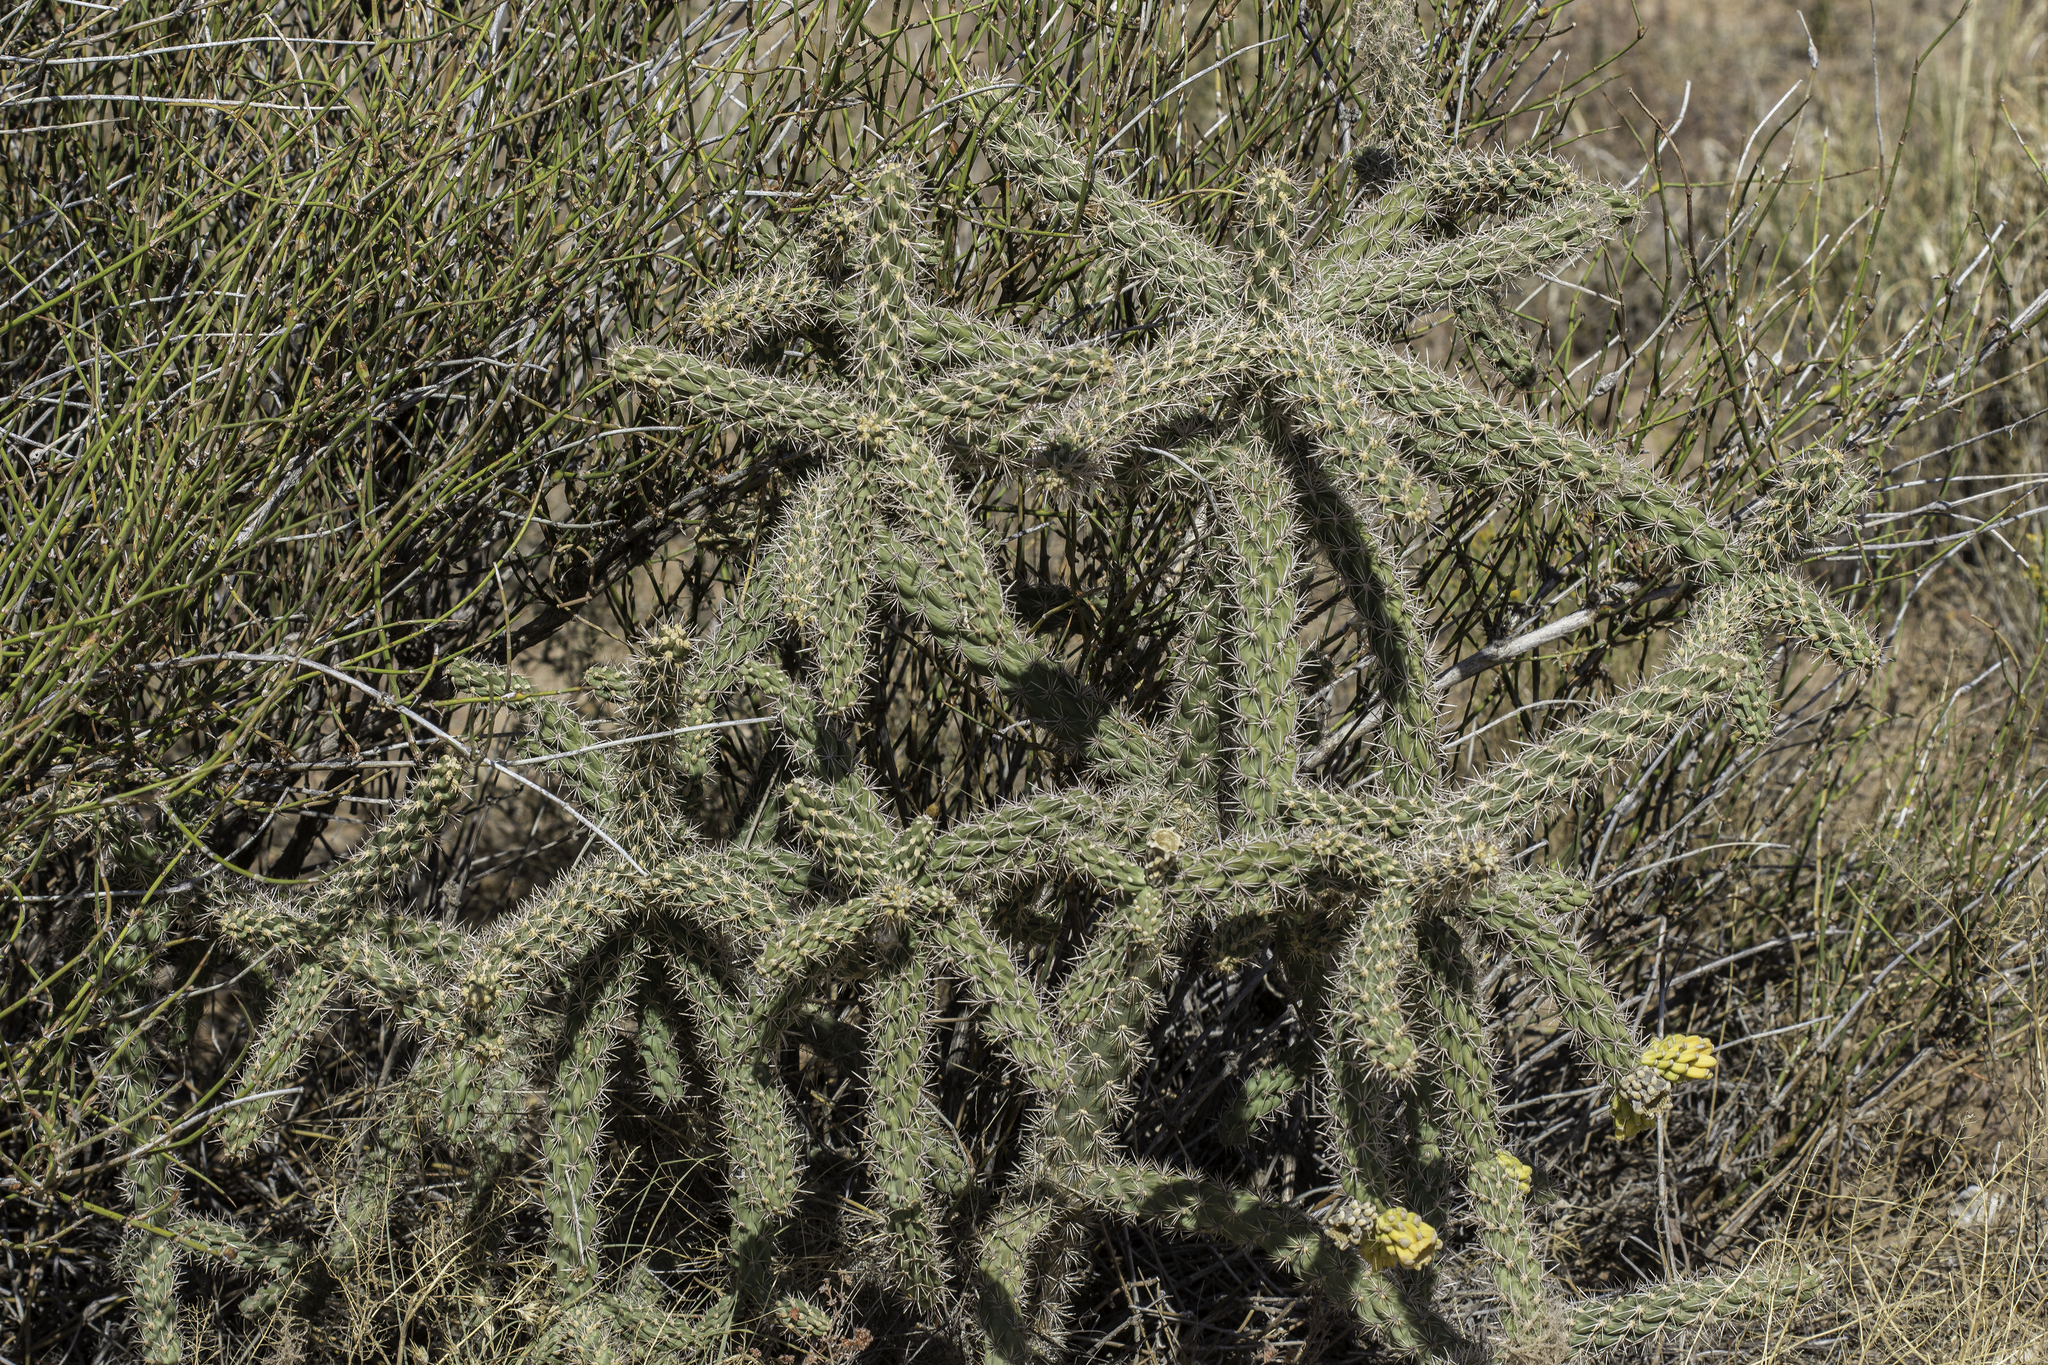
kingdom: Plantae
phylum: Tracheophyta
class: Magnoliopsida
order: Caryophyllales
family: Cactaceae
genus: Cylindropuntia
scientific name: Cylindropuntia imbricata
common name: Candelabrum cactus
